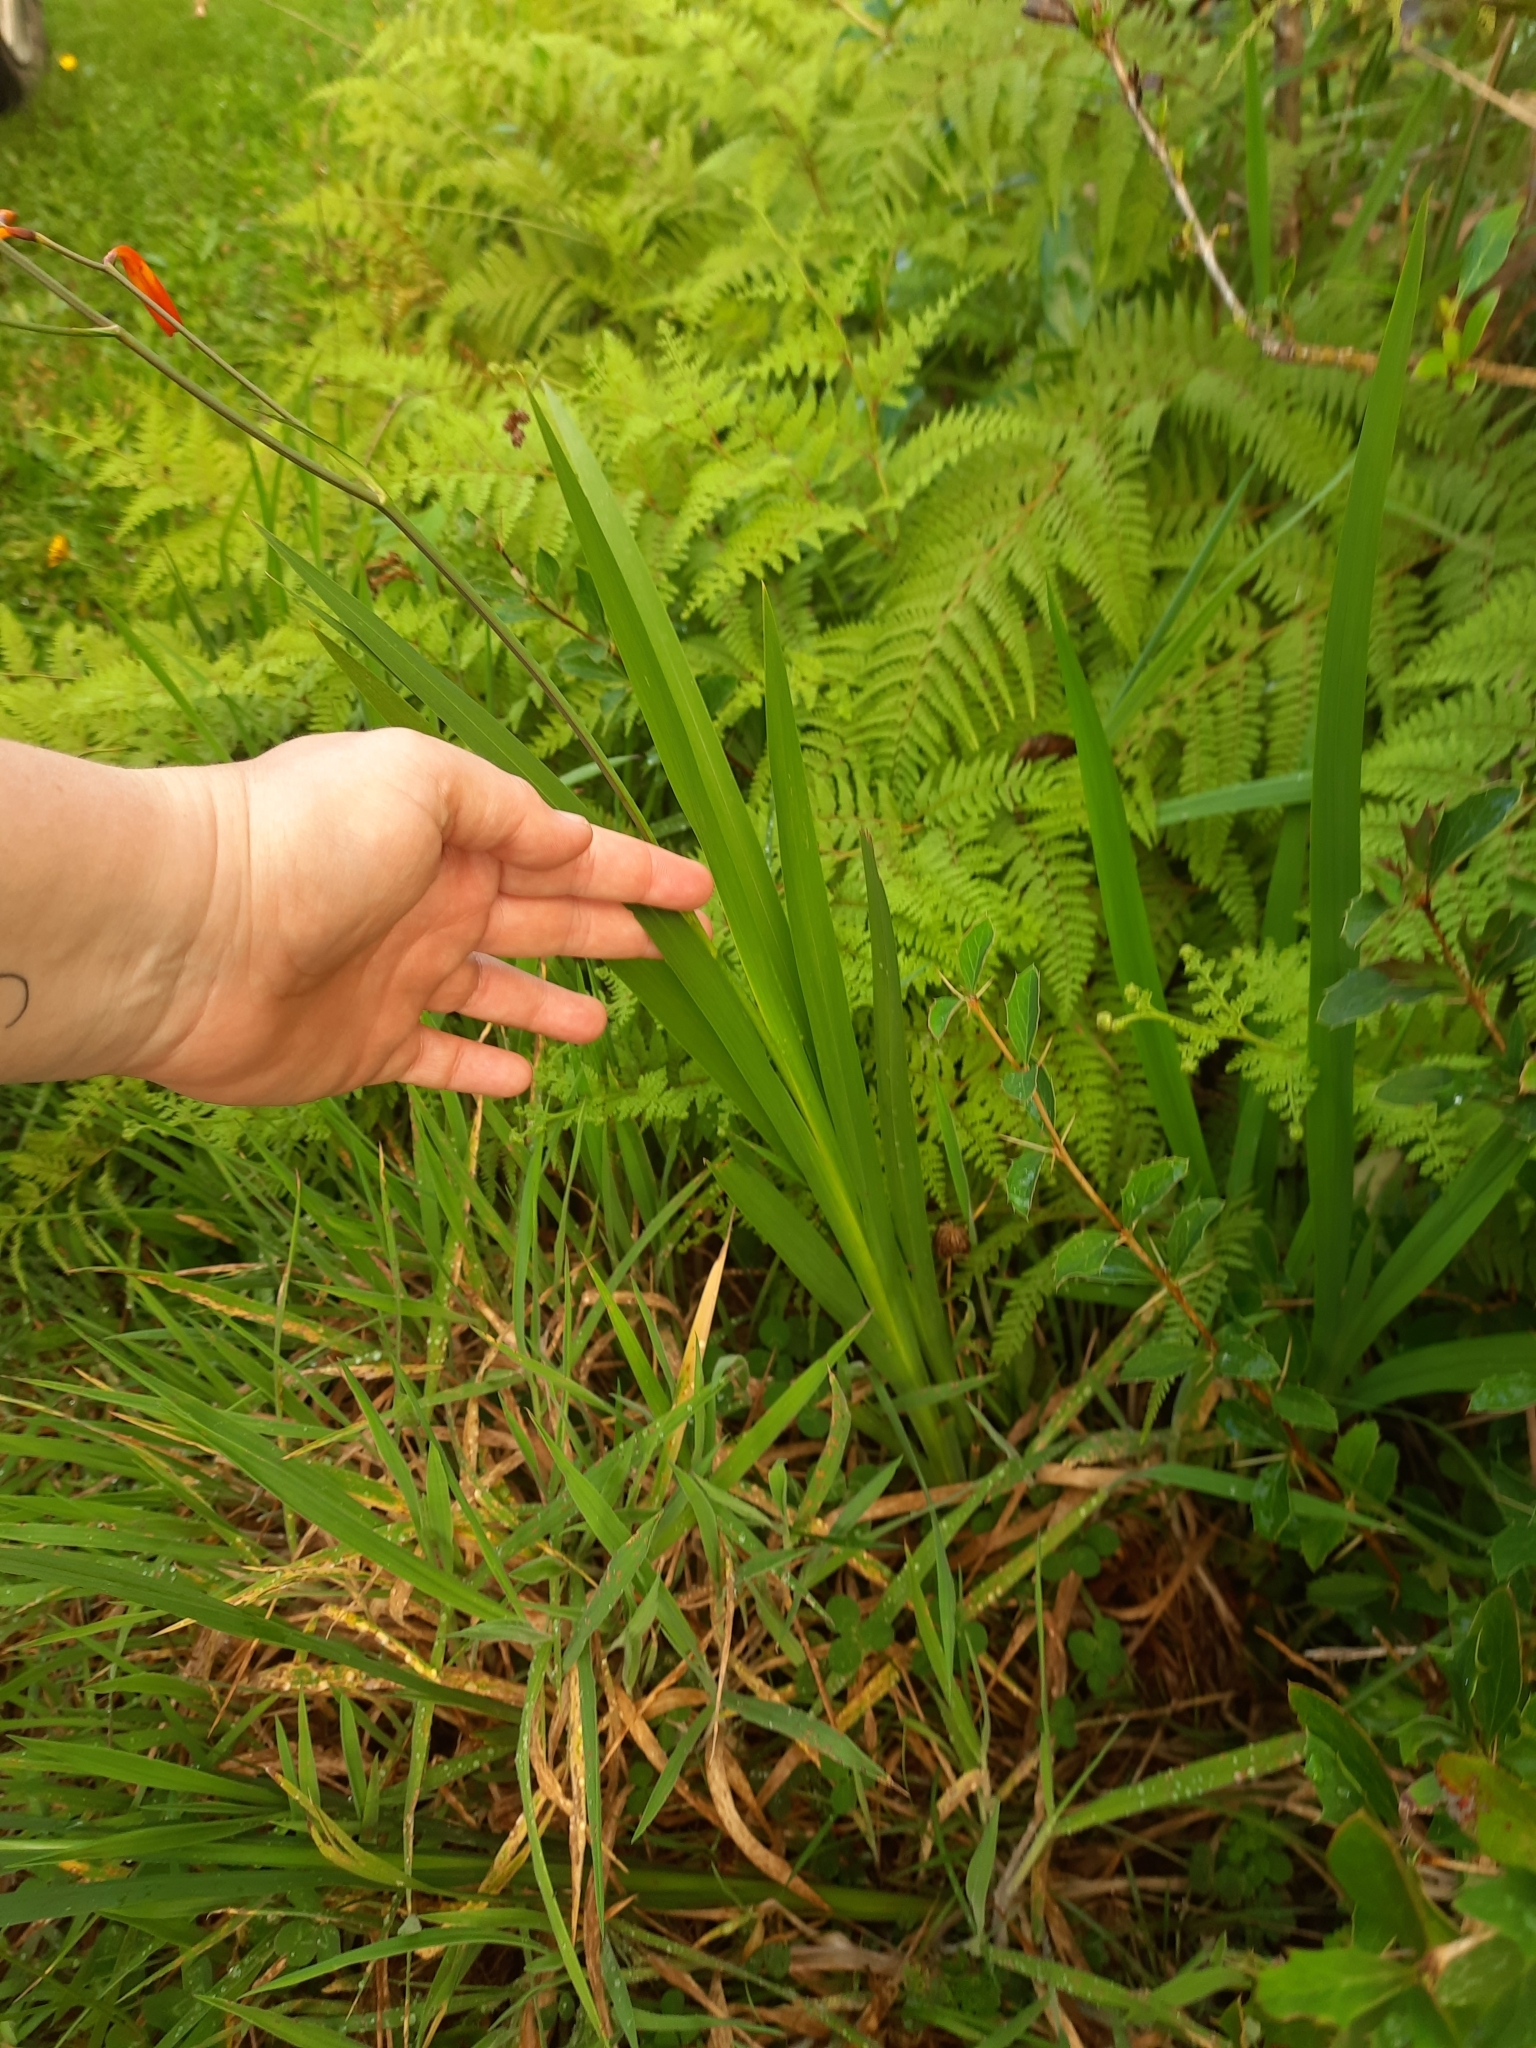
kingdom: Plantae
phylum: Tracheophyta
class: Liliopsida
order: Asparagales
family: Iridaceae
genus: Crocosmia
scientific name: Crocosmia crocosmiiflora
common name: Montbretia
